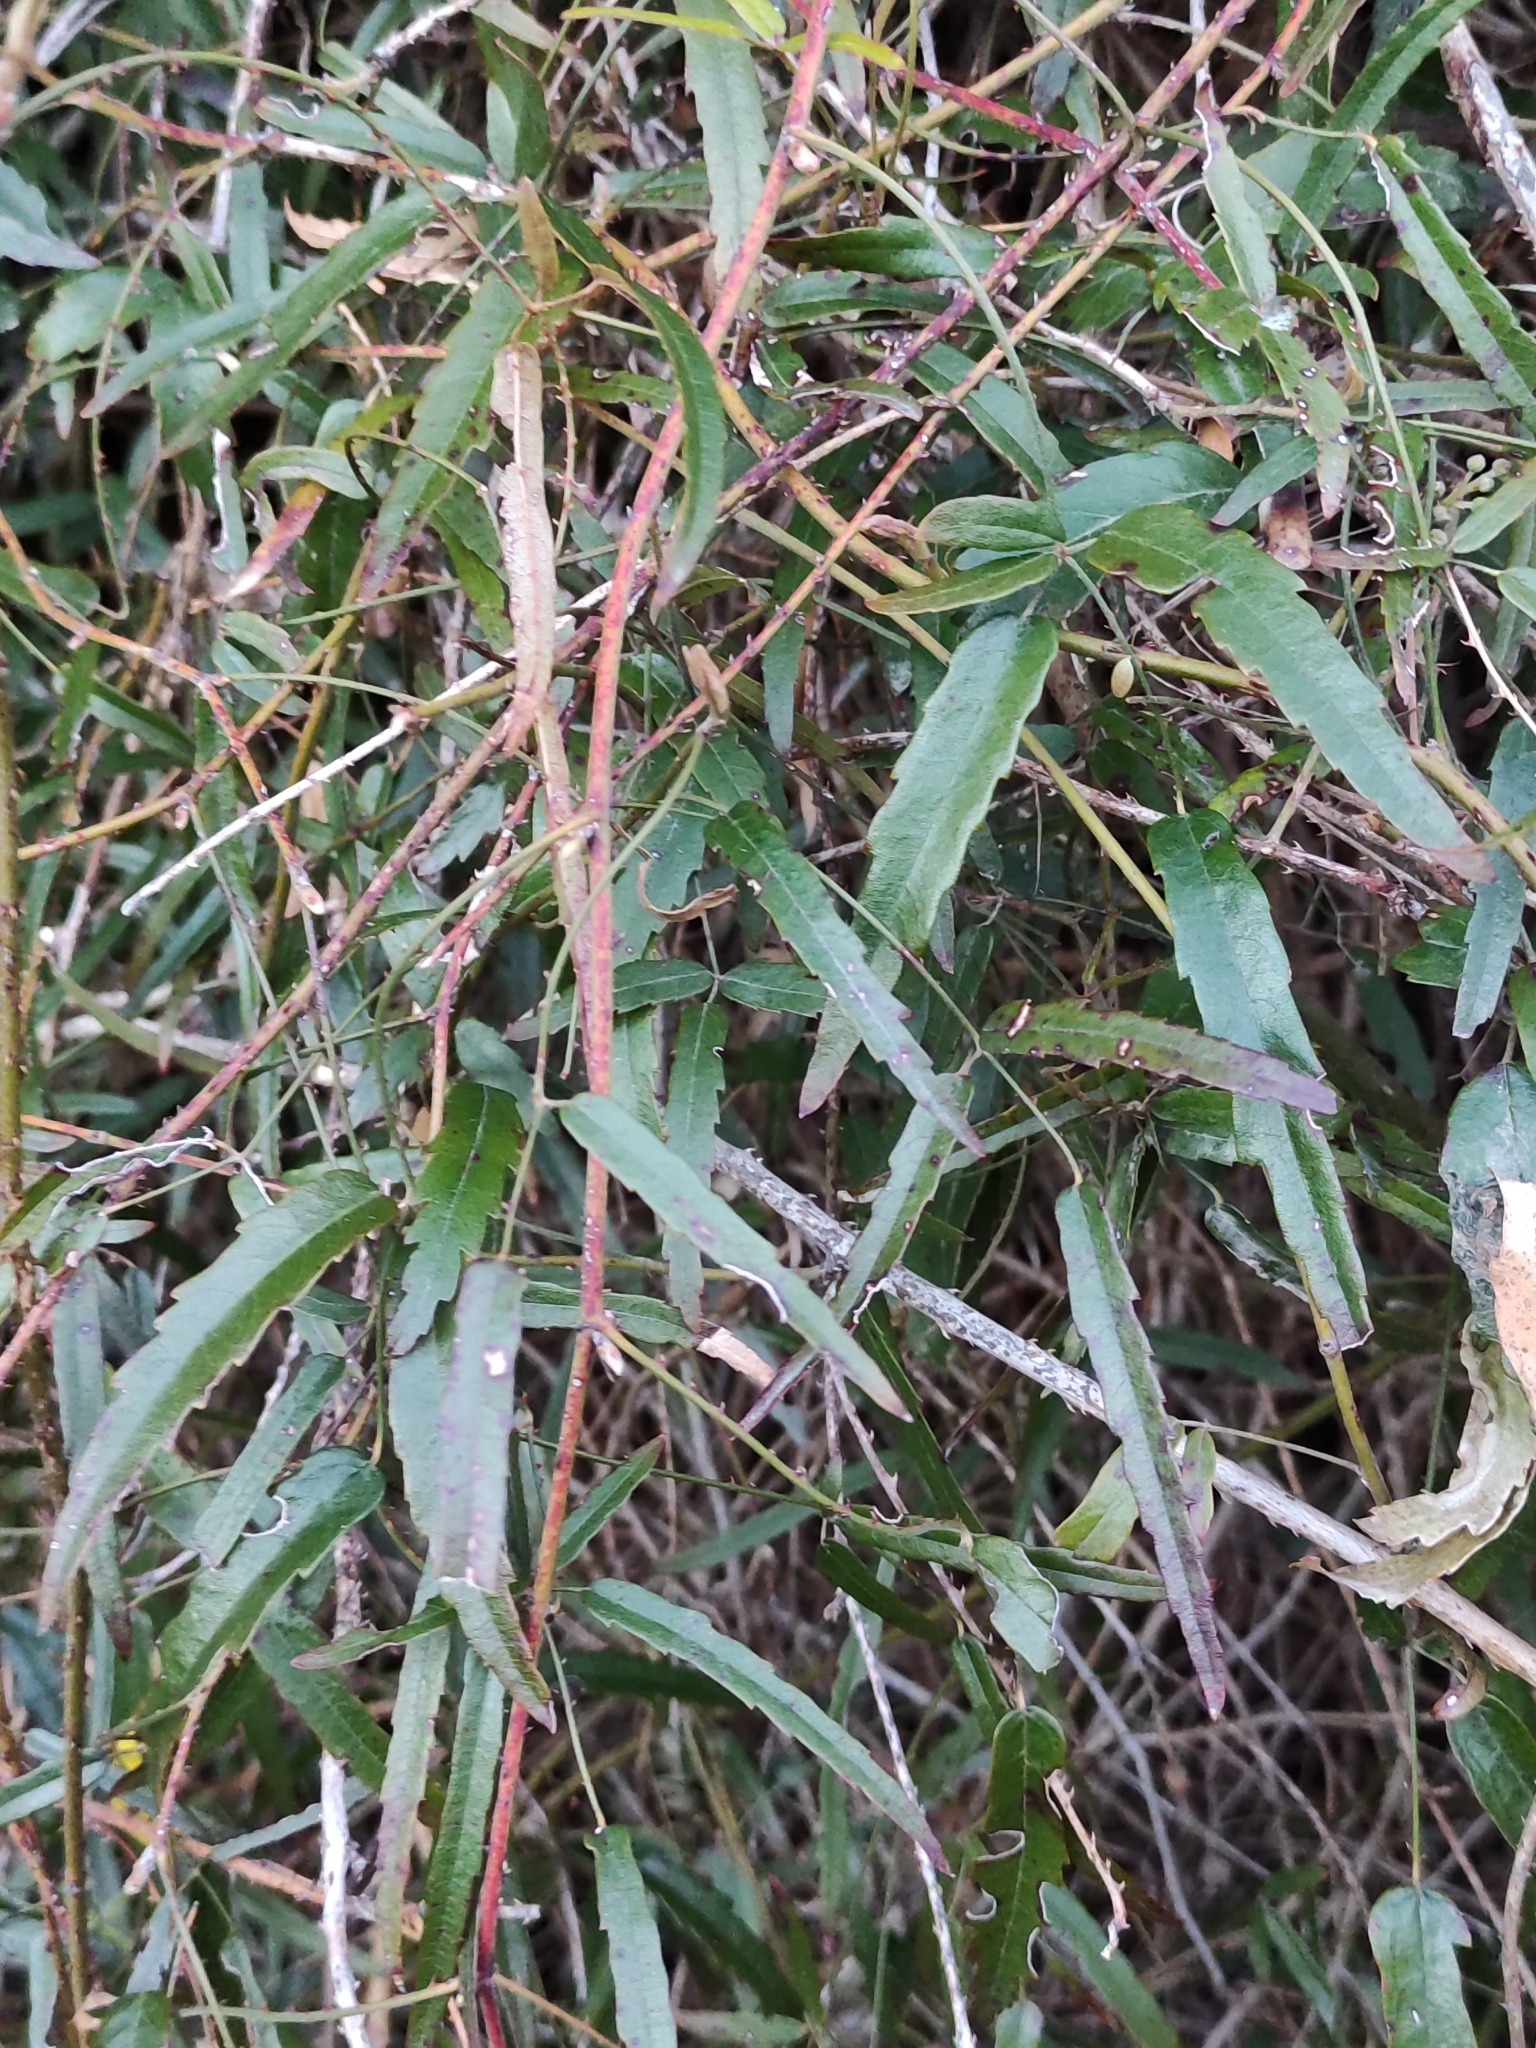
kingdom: Plantae
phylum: Tracheophyta
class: Magnoliopsida
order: Rosales
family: Rosaceae
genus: Rubus
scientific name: Rubus schmidelioides
